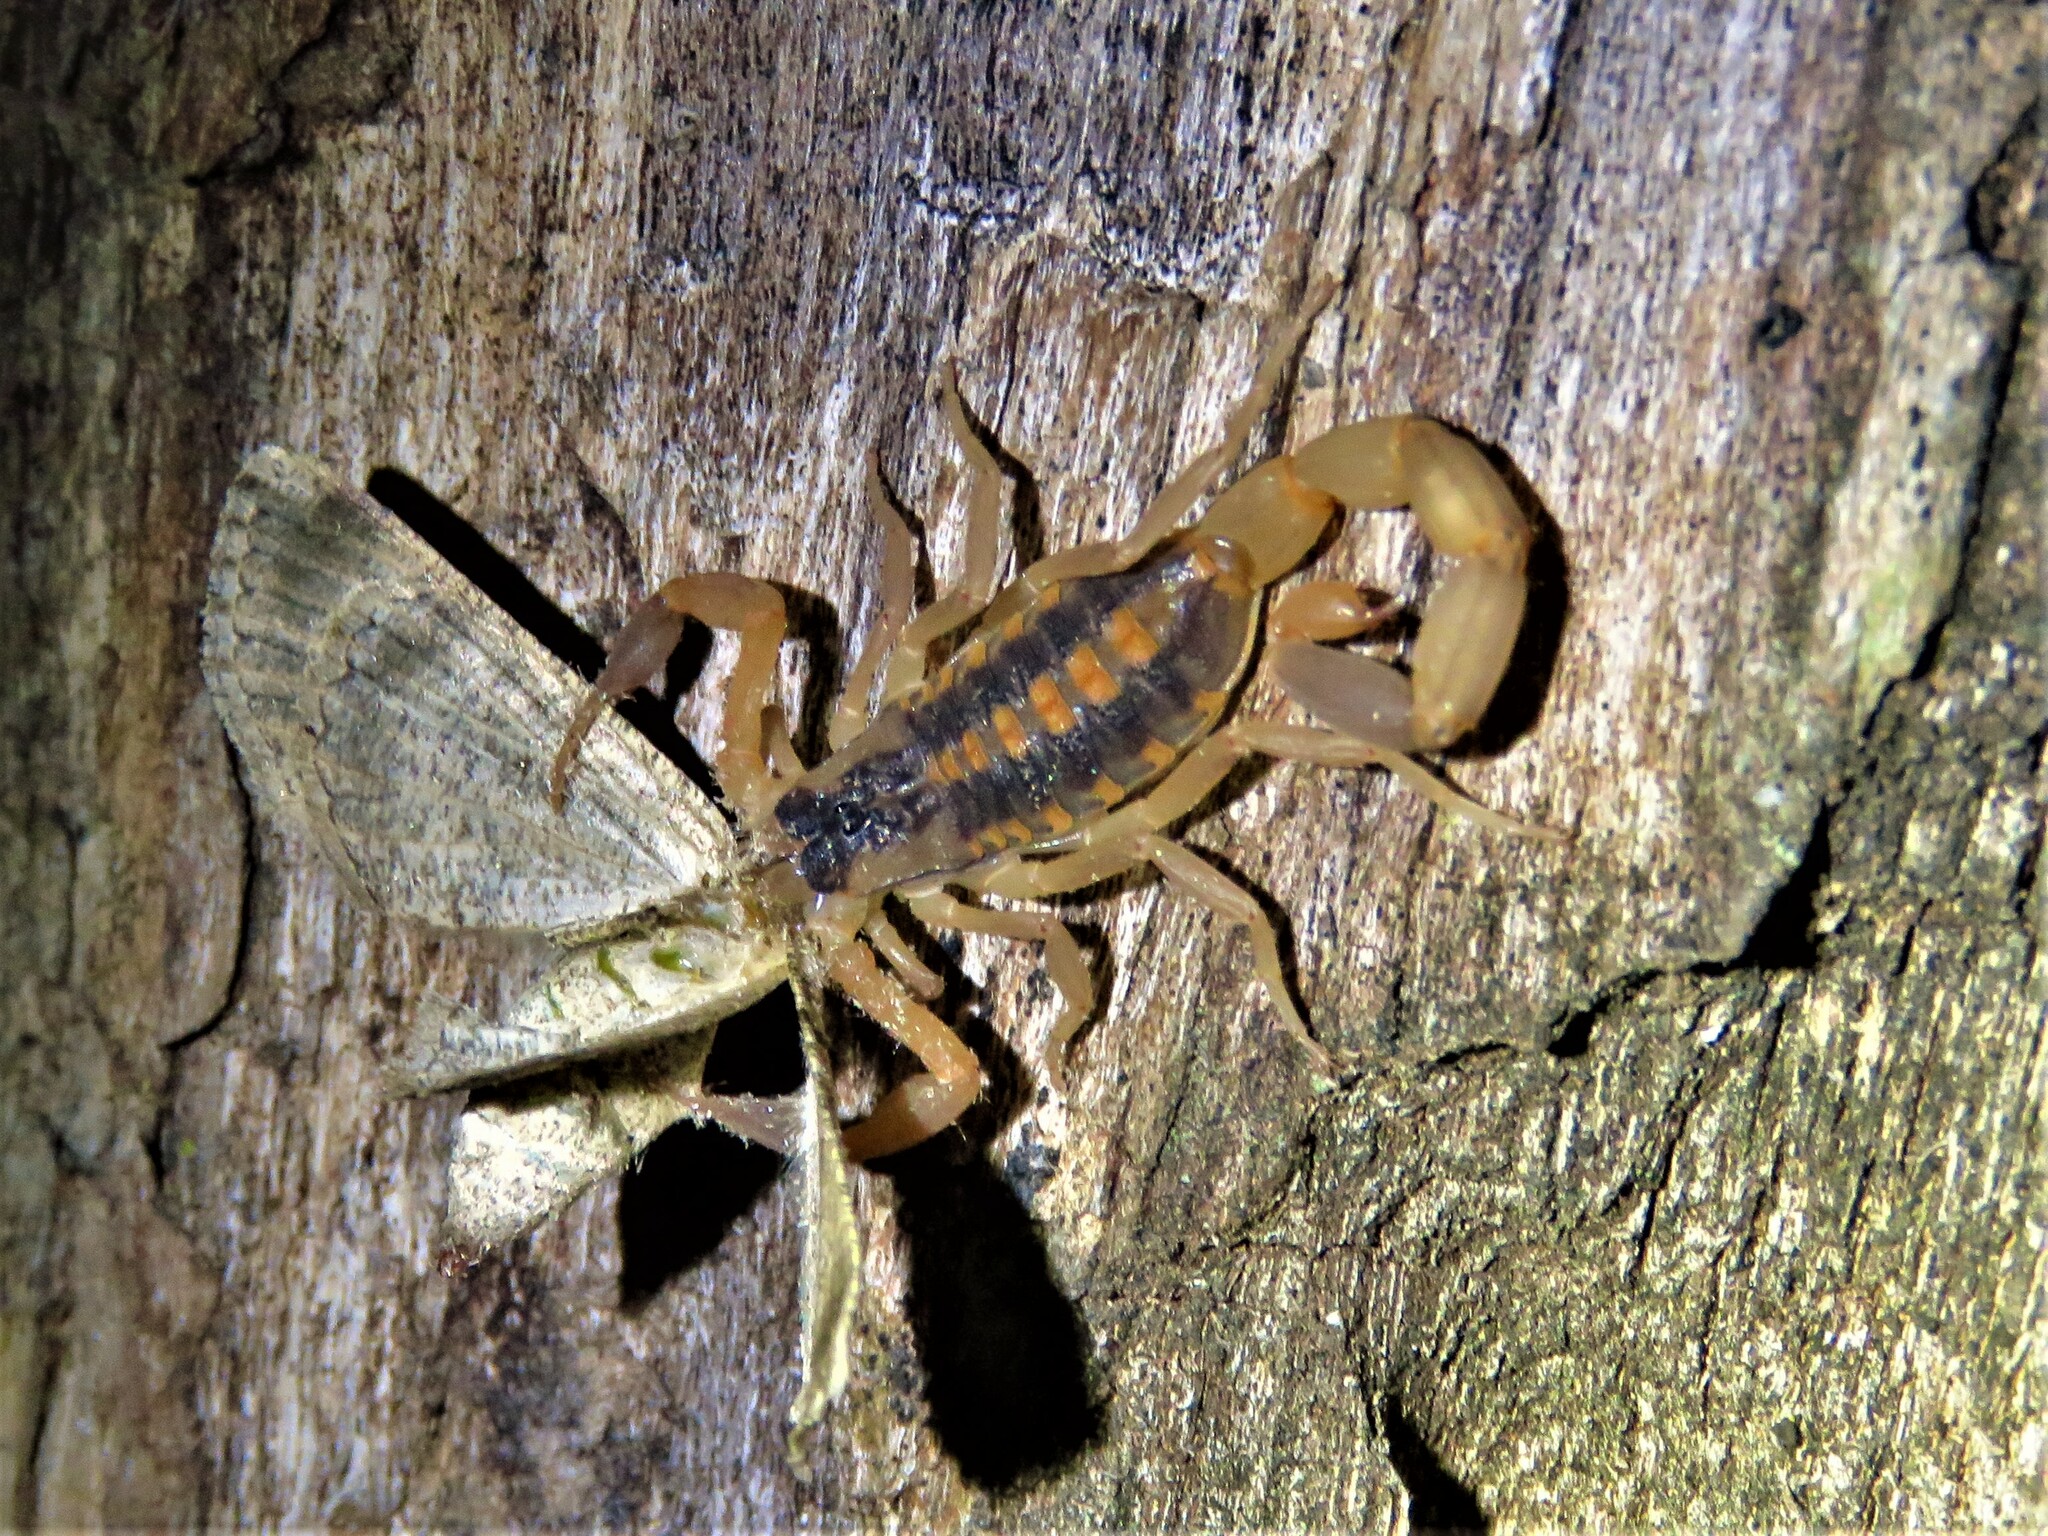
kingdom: Animalia
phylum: Arthropoda
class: Arachnida
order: Scorpiones
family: Buthidae
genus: Centruroides
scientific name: Centruroides vittatus
